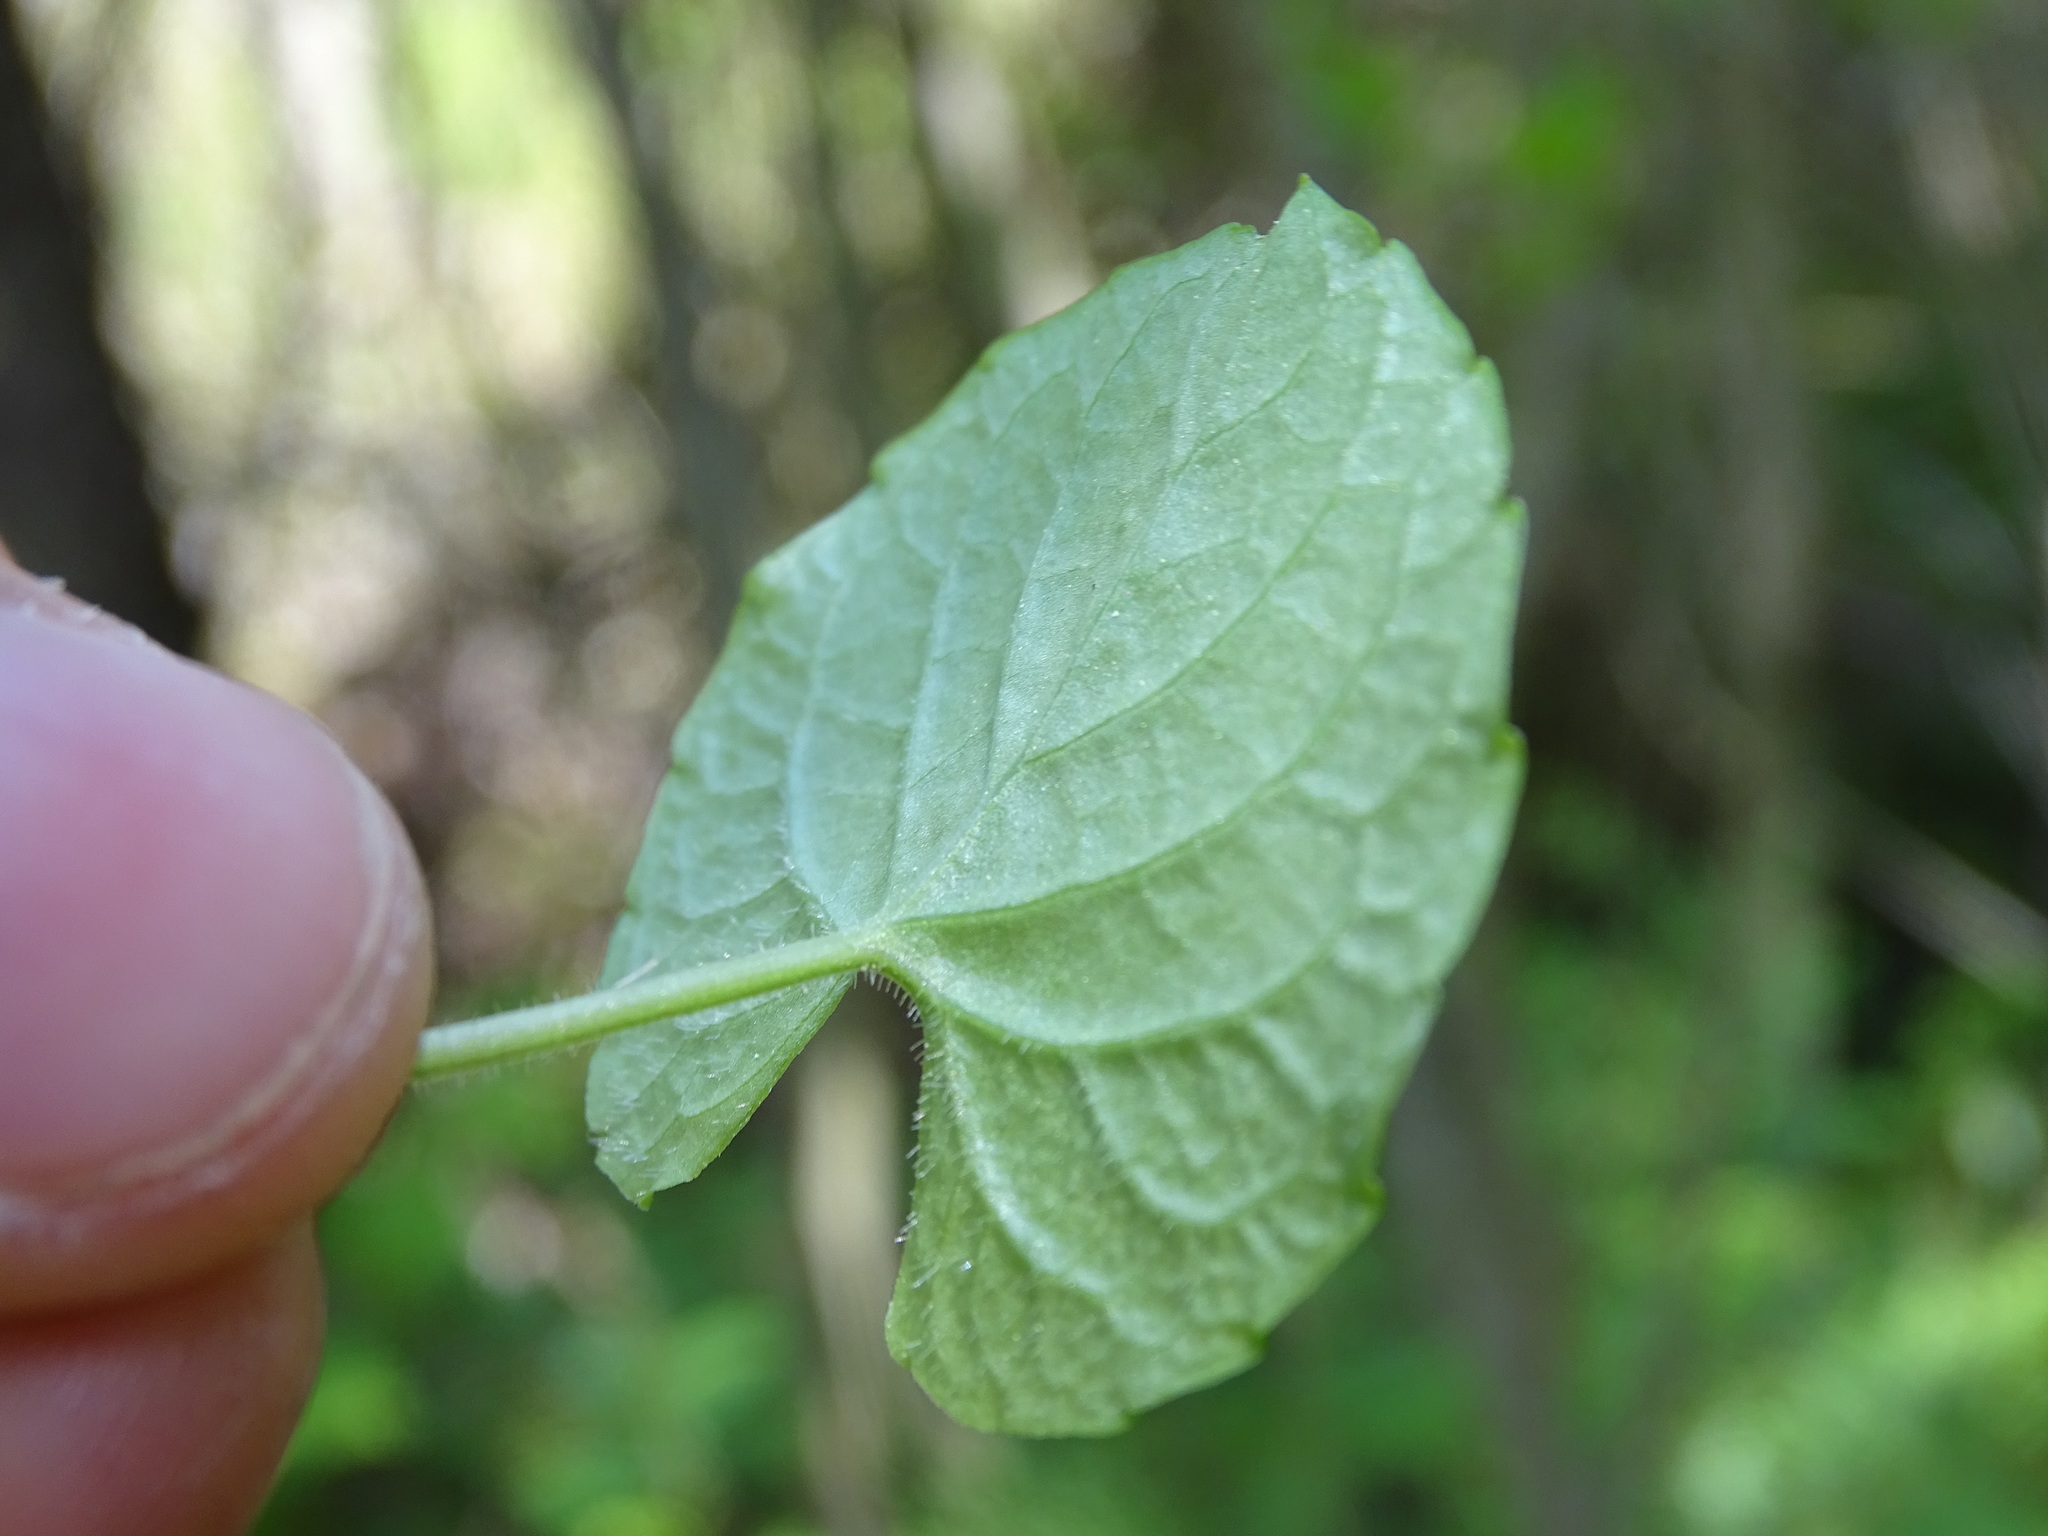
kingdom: Plantae
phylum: Tracheophyta
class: Magnoliopsida
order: Malpighiales
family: Violaceae
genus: Viola
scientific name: Viola renifolia
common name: Kidney-leaf violet
